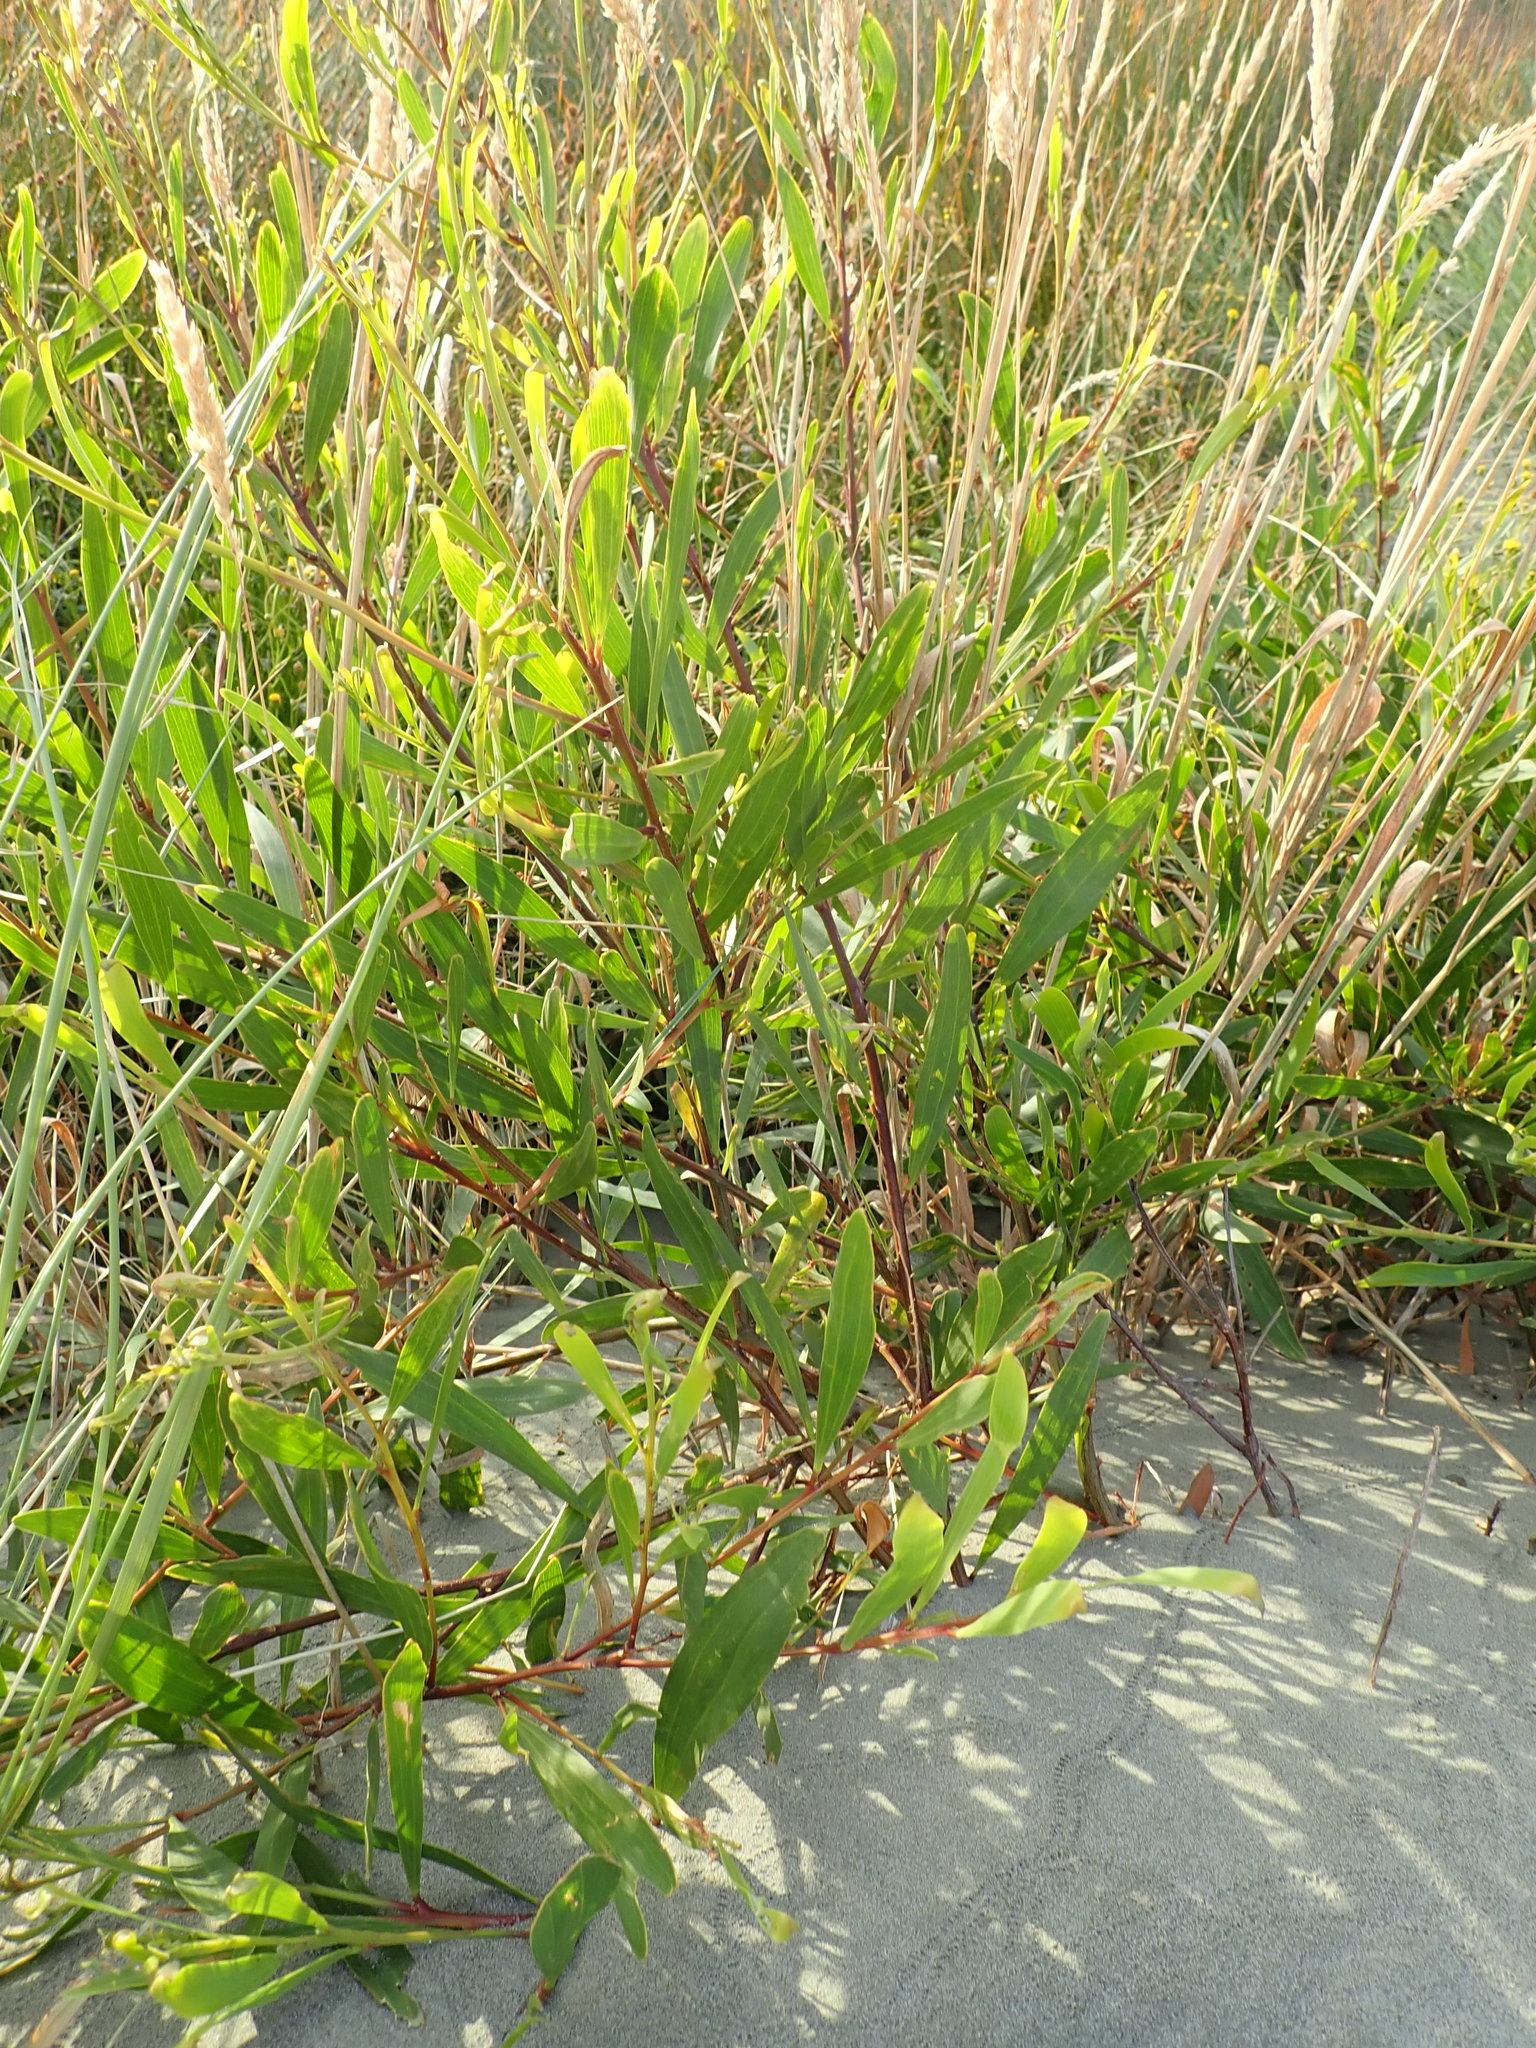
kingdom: Plantae
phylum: Tracheophyta
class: Magnoliopsida
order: Fabales
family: Fabaceae
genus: Acacia
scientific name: Acacia longifolia
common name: Sydney golden wattle
